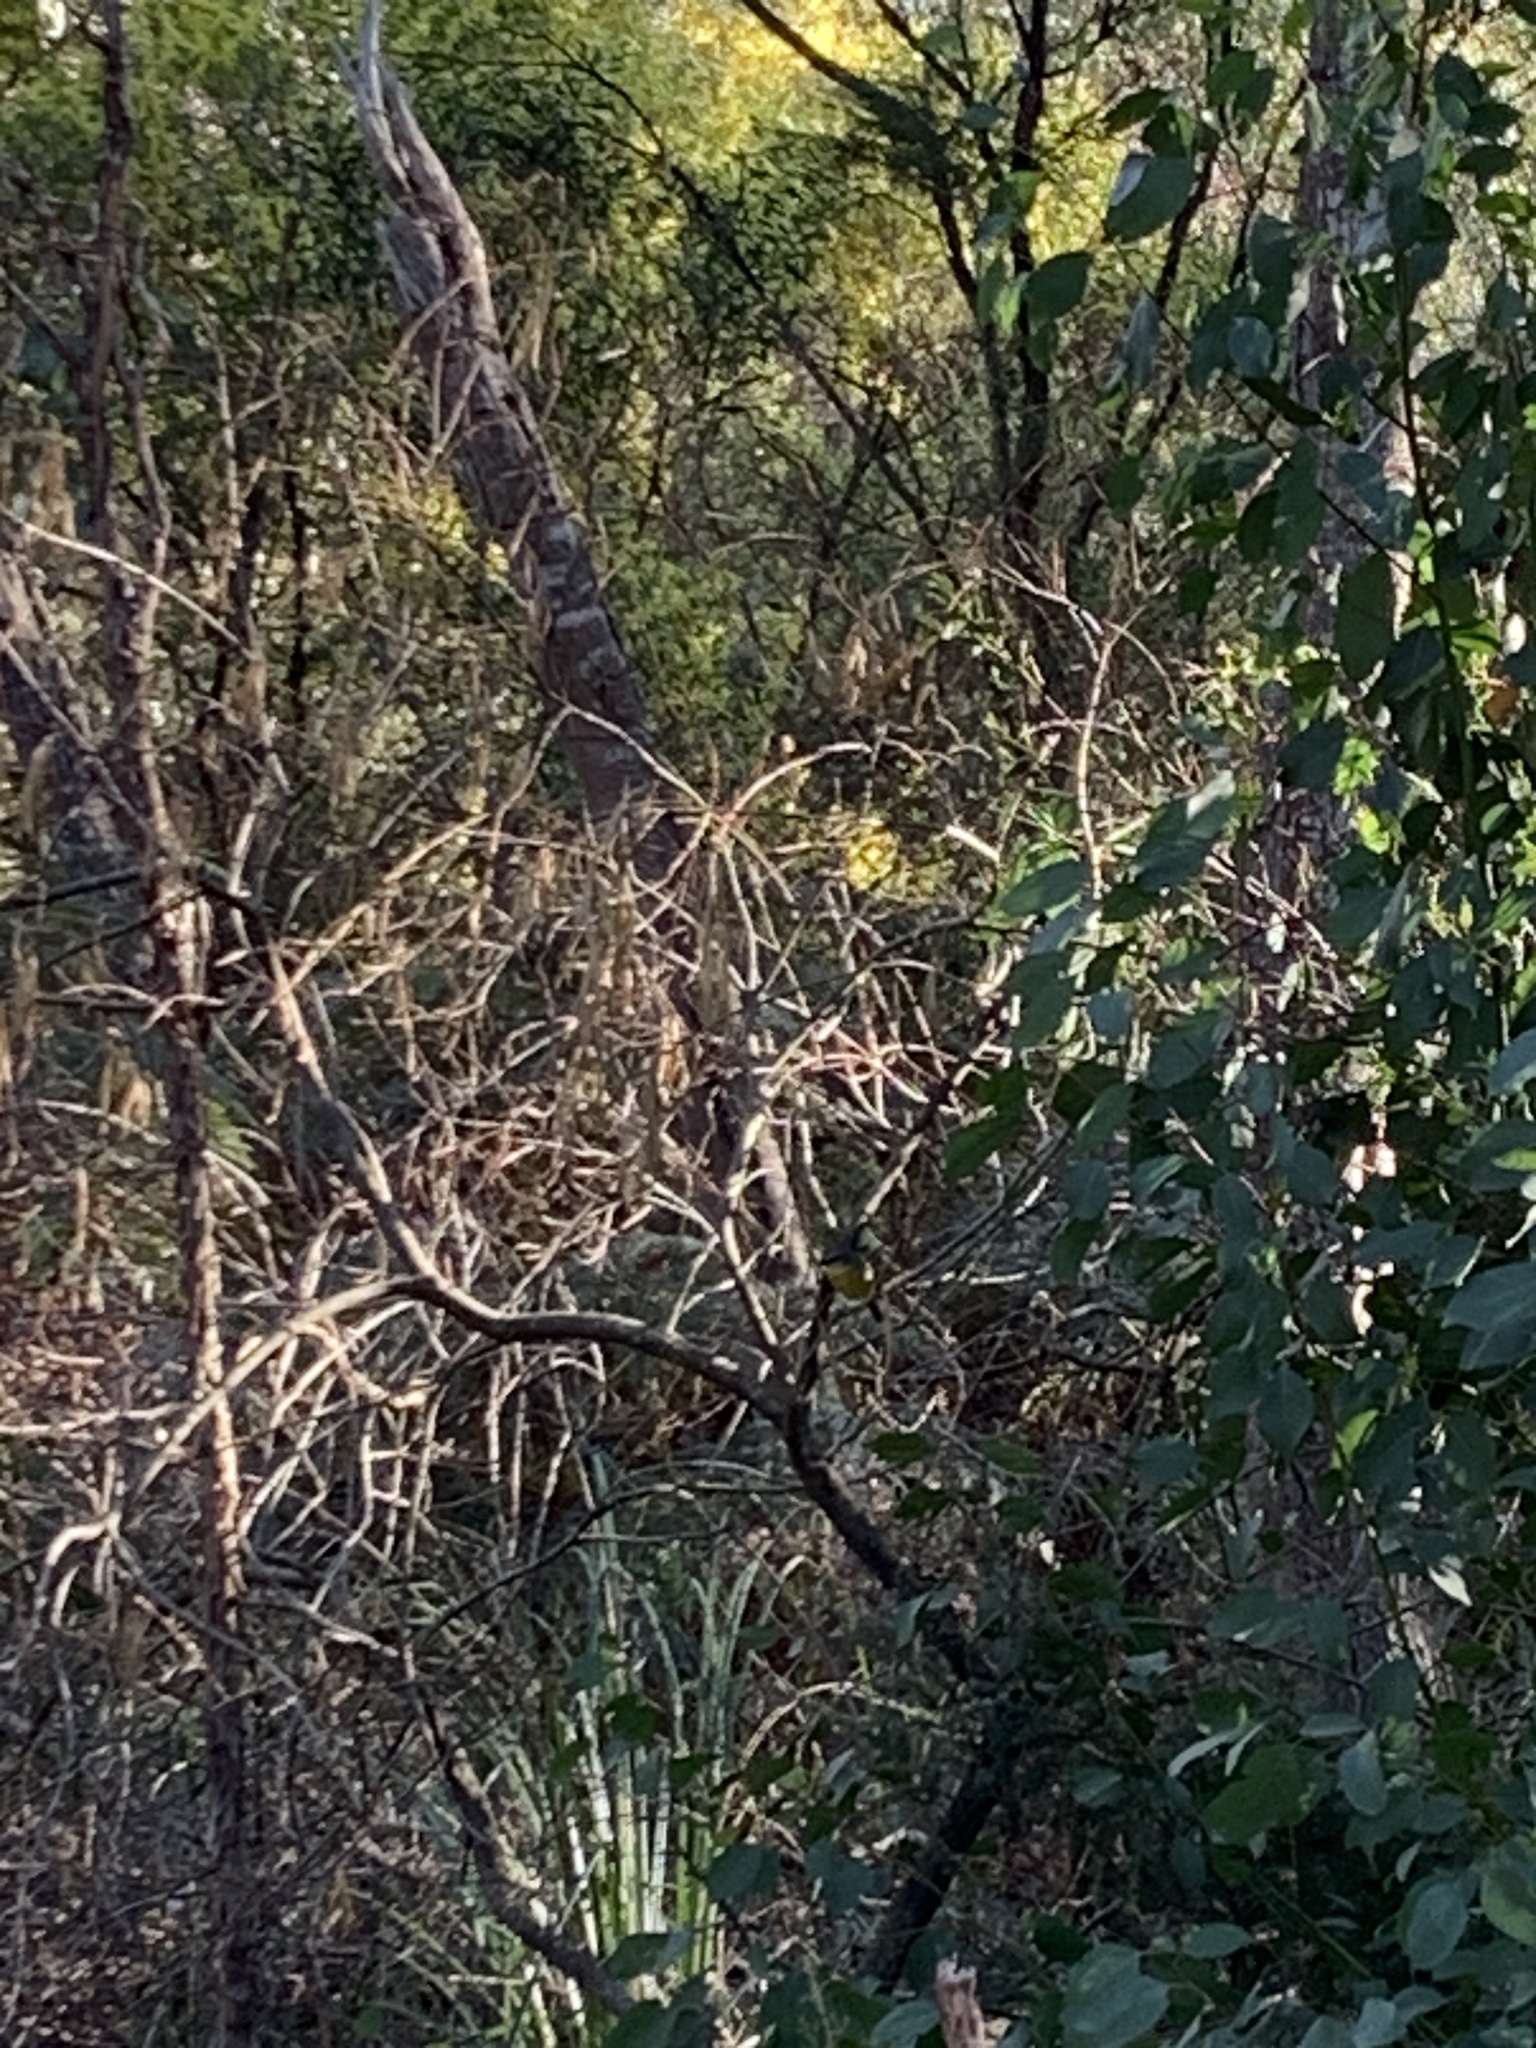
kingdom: Animalia
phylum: Chordata
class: Aves
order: Passeriformes
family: Petroicidae
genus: Eopsaltria
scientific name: Eopsaltria australis
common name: Eastern yellow robin
